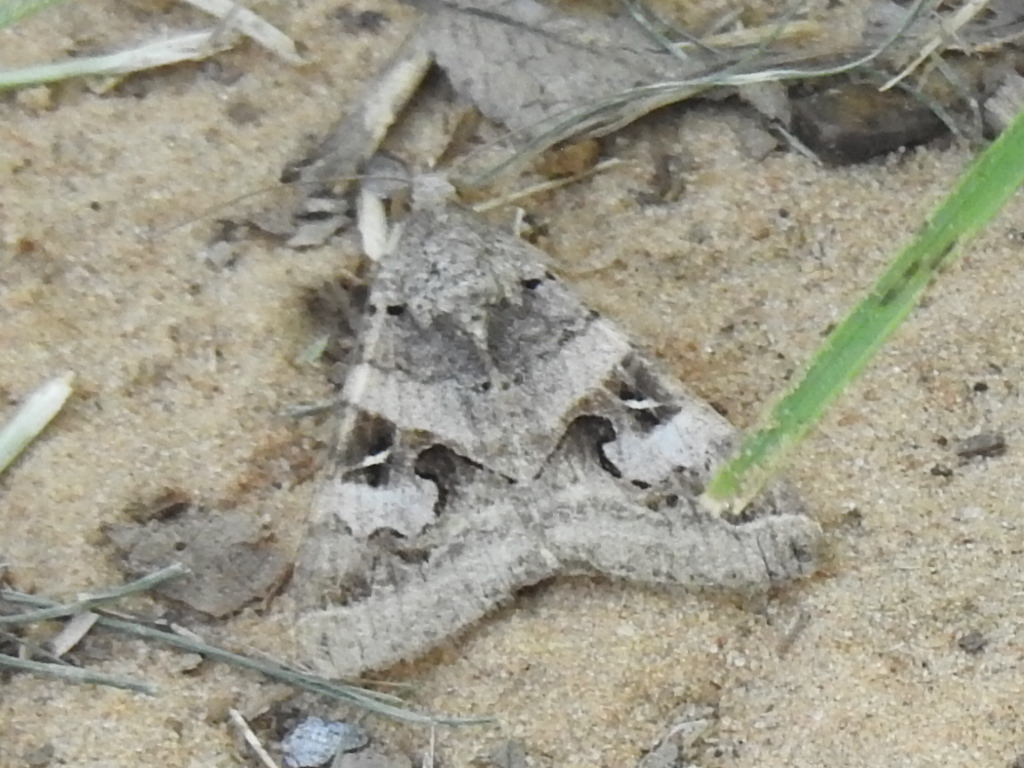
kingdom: Animalia
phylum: Arthropoda
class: Insecta
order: Lepidoptera
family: Erebidae
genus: Melipotis
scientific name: Melipotis indomita
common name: Moth
